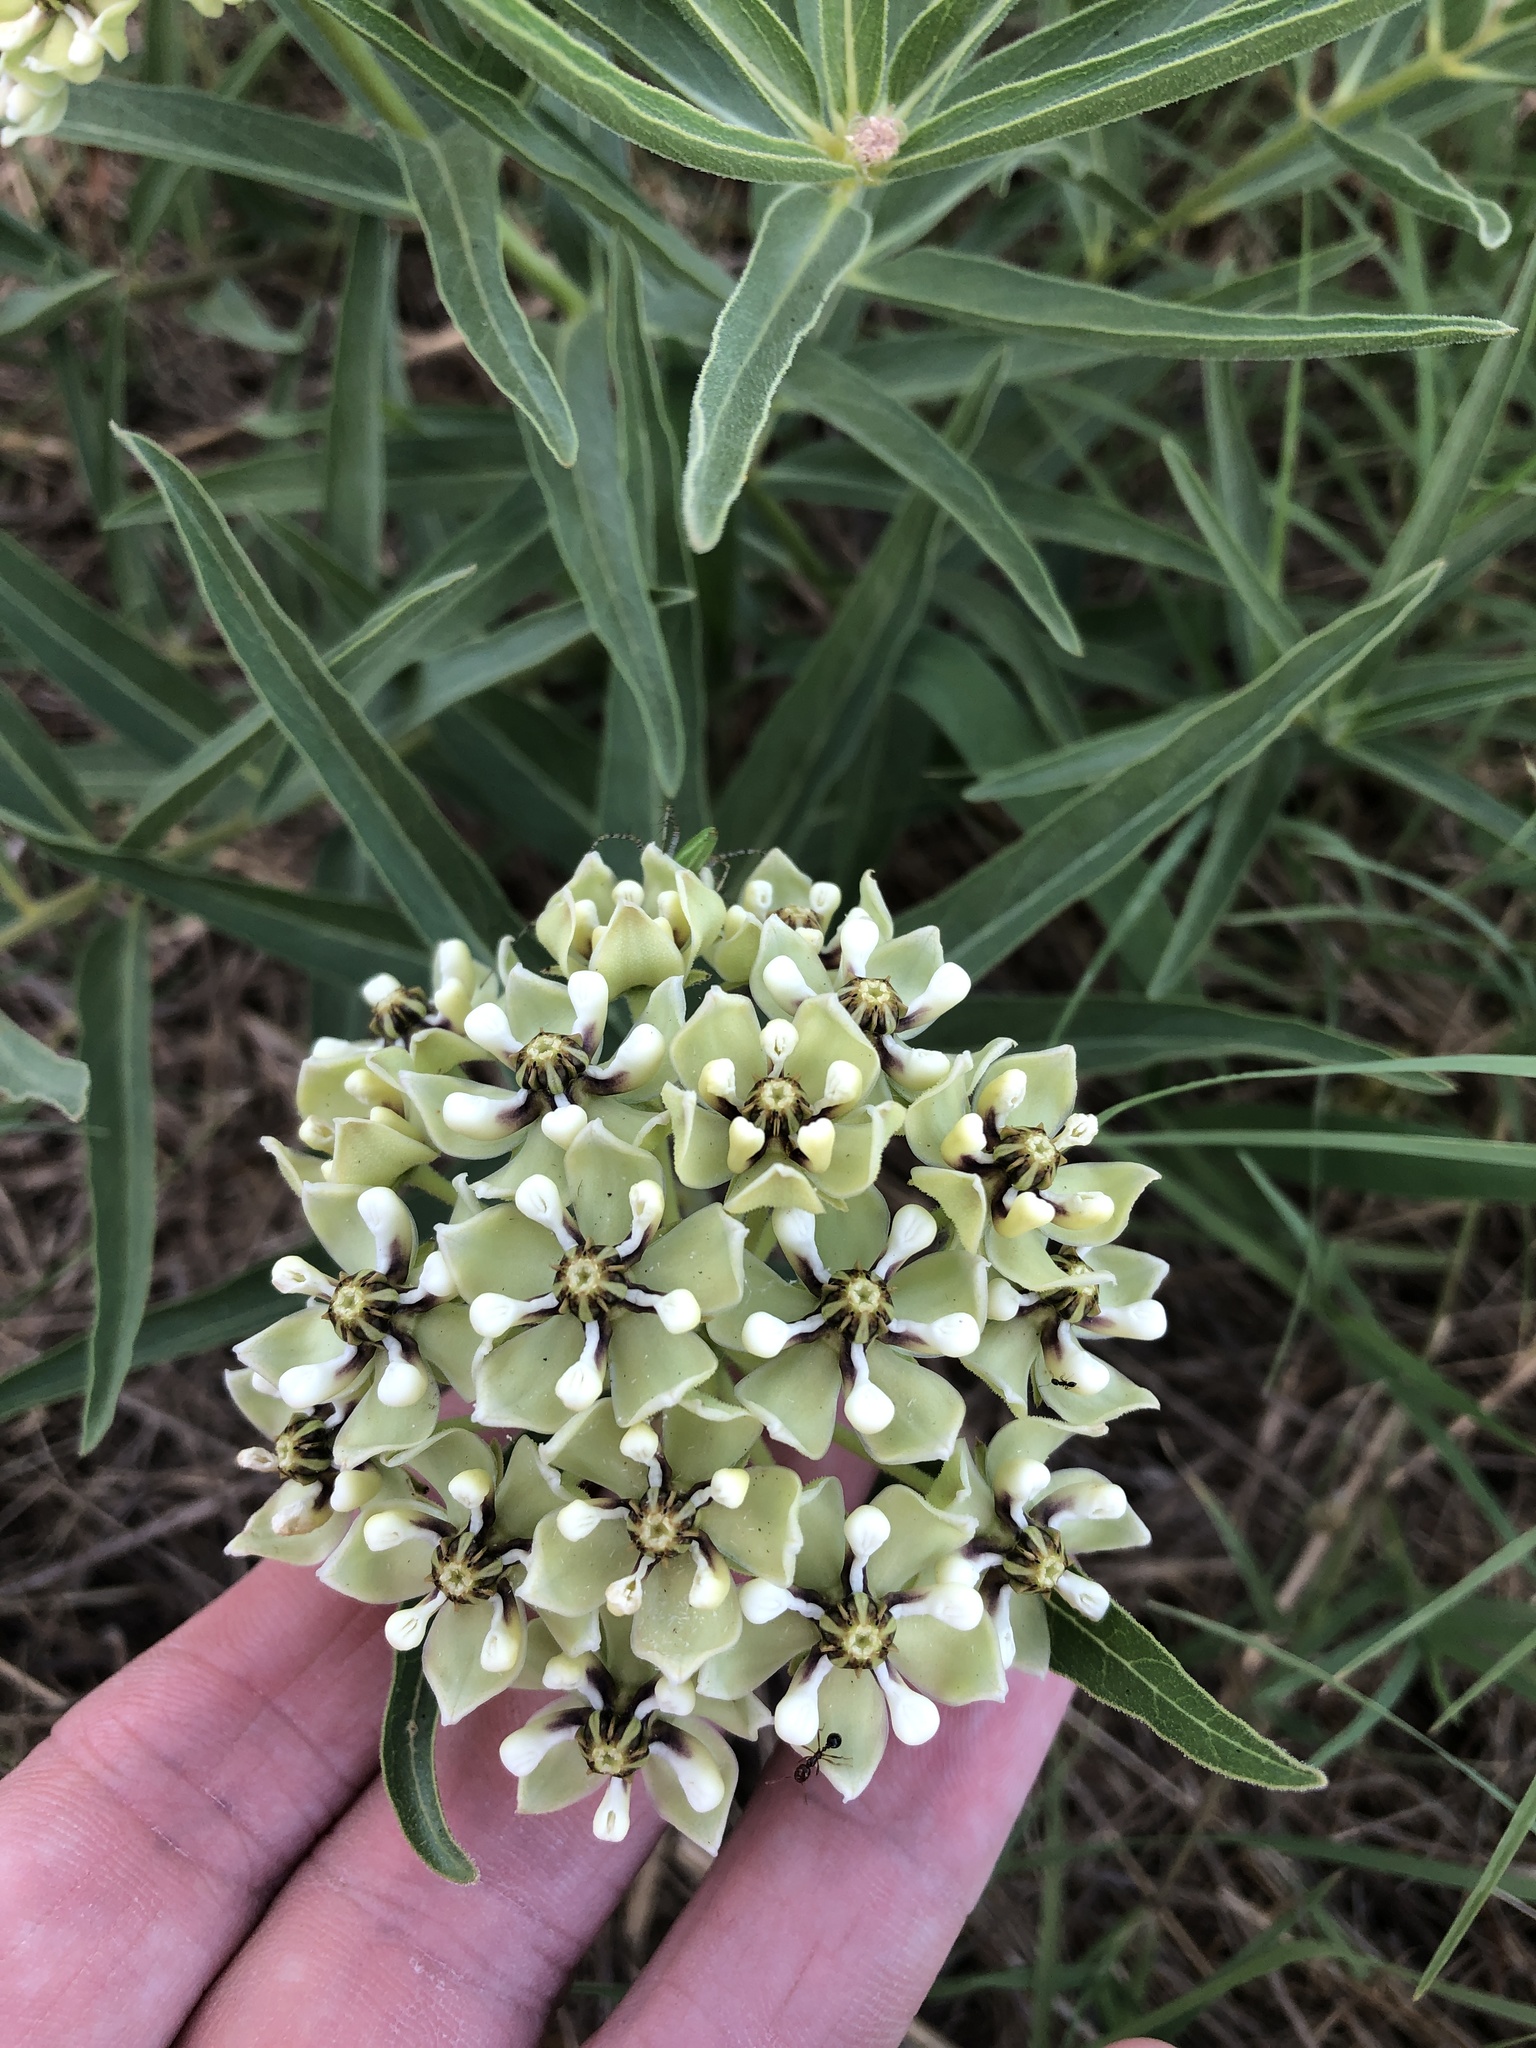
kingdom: Plantae
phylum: Tracheophyta
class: Magnoliopsida
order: Gentianales
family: Apocynaceae
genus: Asclepias
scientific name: Asclepias asperula
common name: Antelope horns
